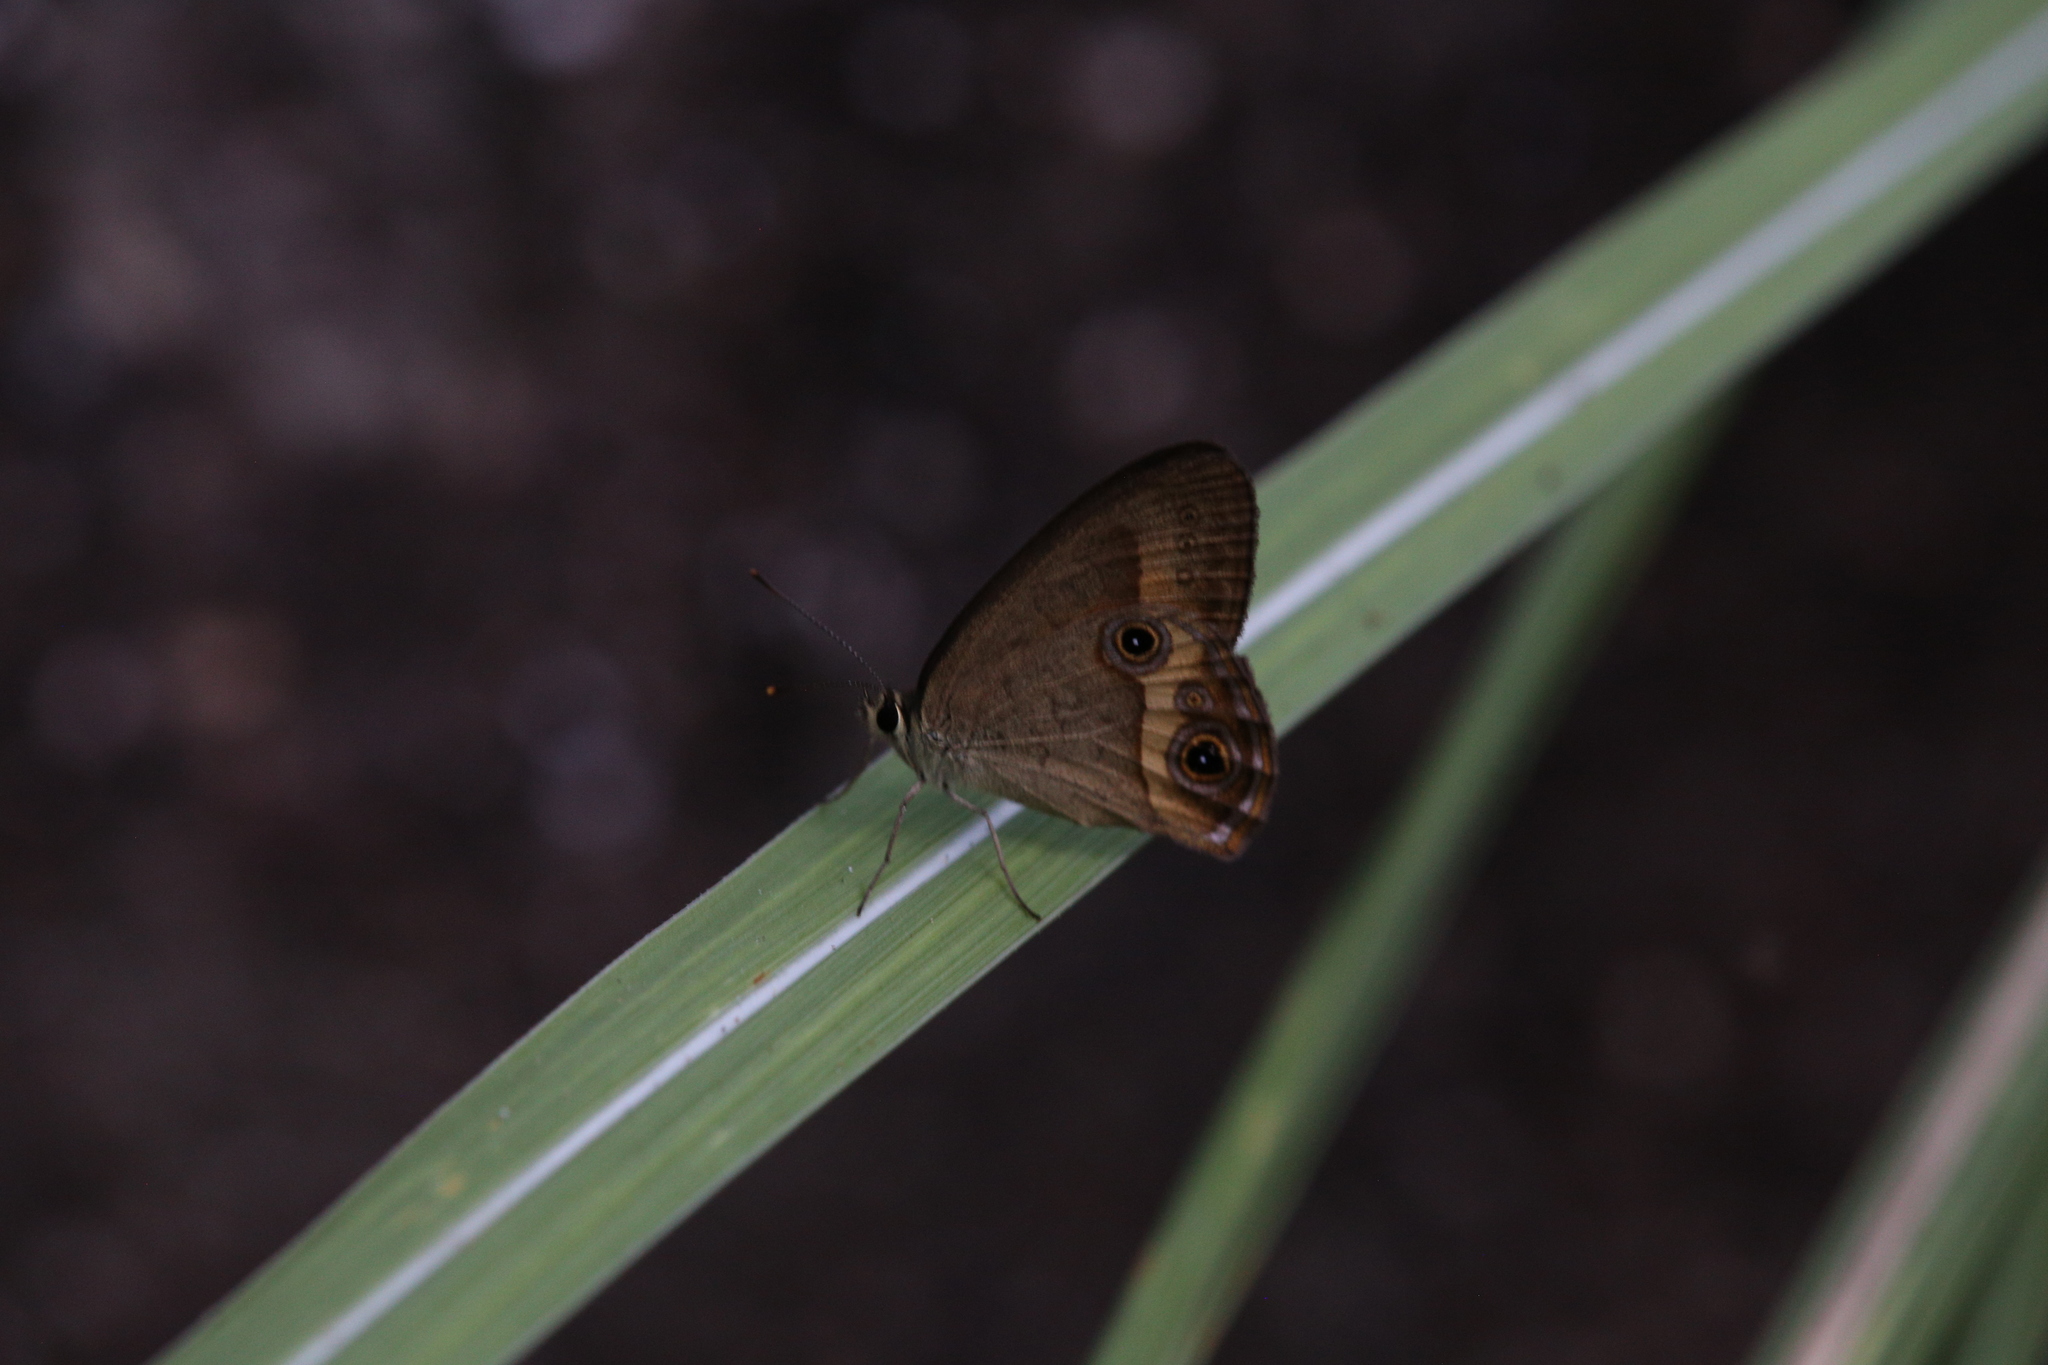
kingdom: Animalia
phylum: Arthropoda
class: Insecta
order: Lepidoptera
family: Nymphalidae
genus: Hypocysta
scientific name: Hypocysta irius
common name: Orange-streaked ringlet
